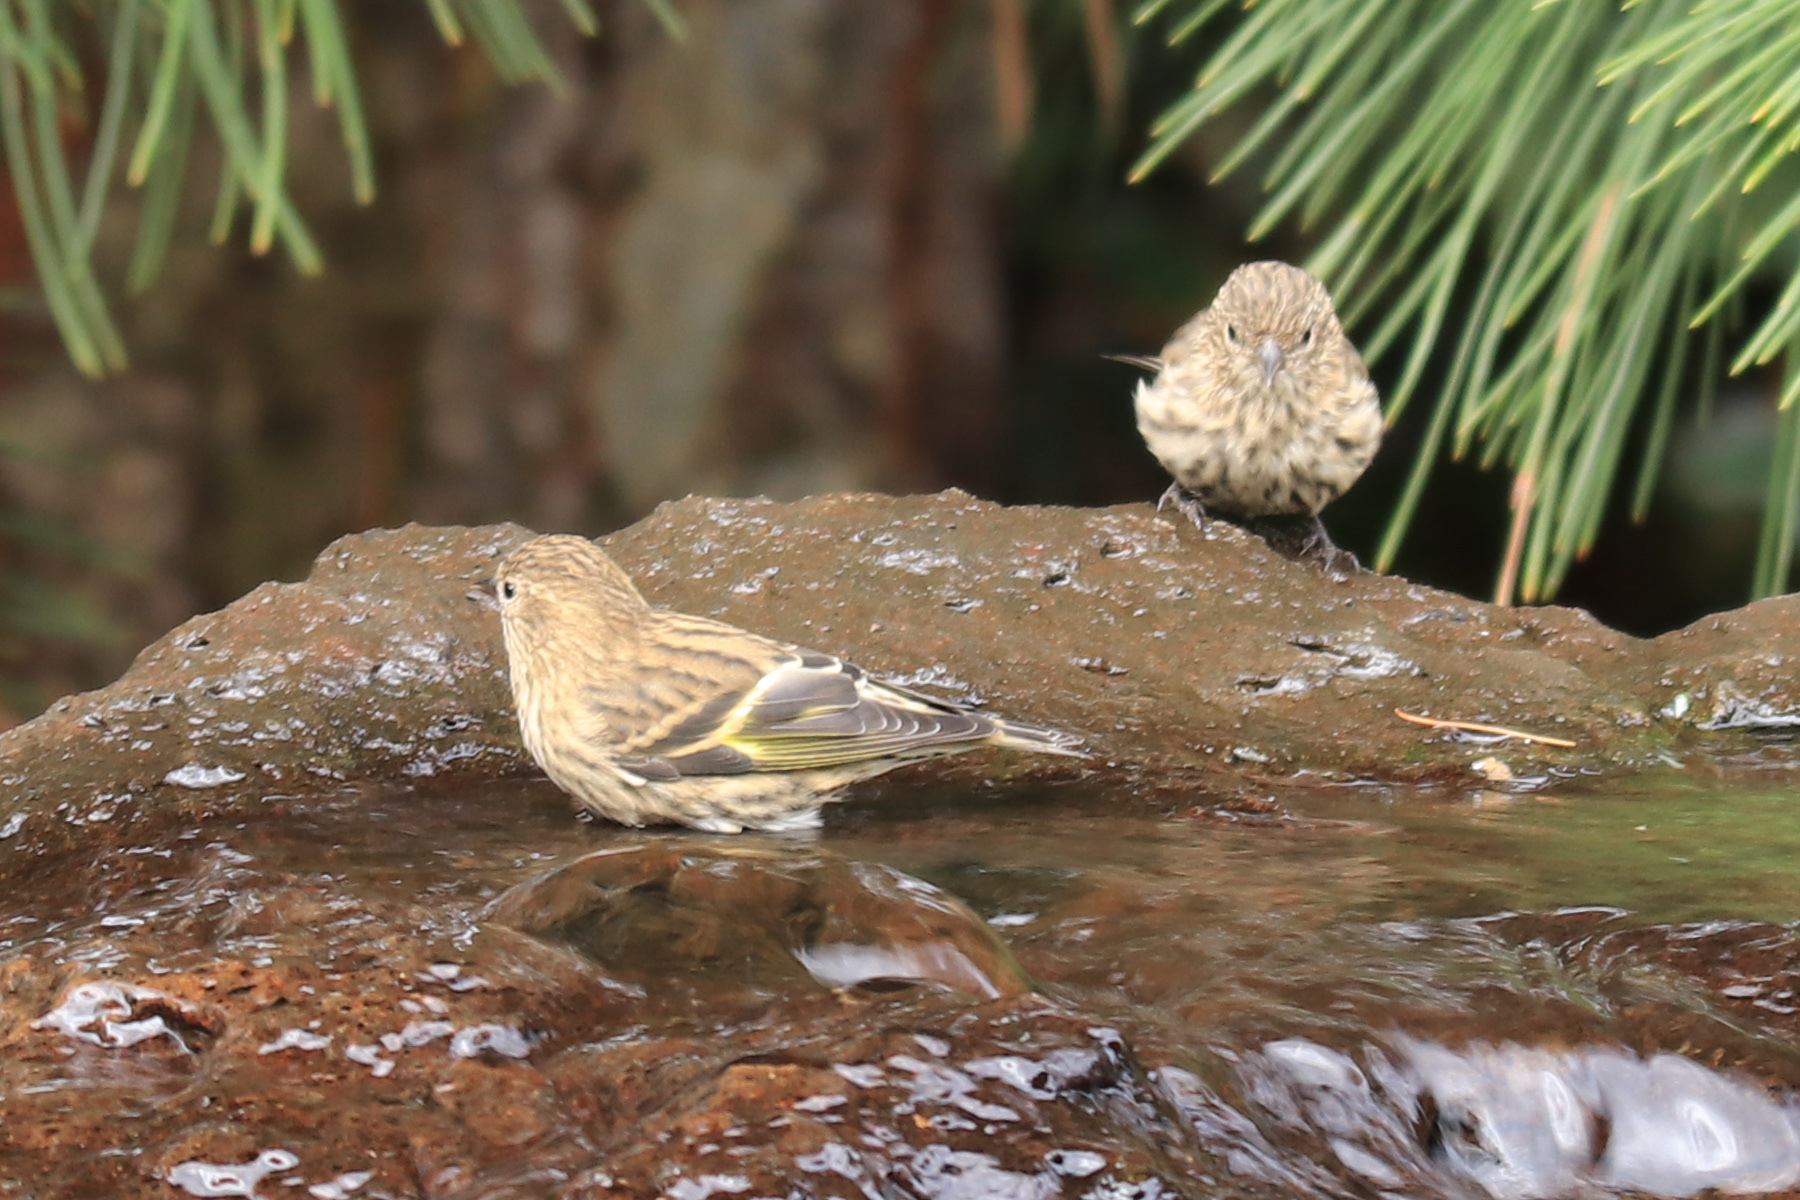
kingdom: Animalia
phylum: Chordata
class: Aves
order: Passeriformes
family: Fringillidae
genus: Spinus
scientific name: Spinus pinus
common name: Pine siskin
